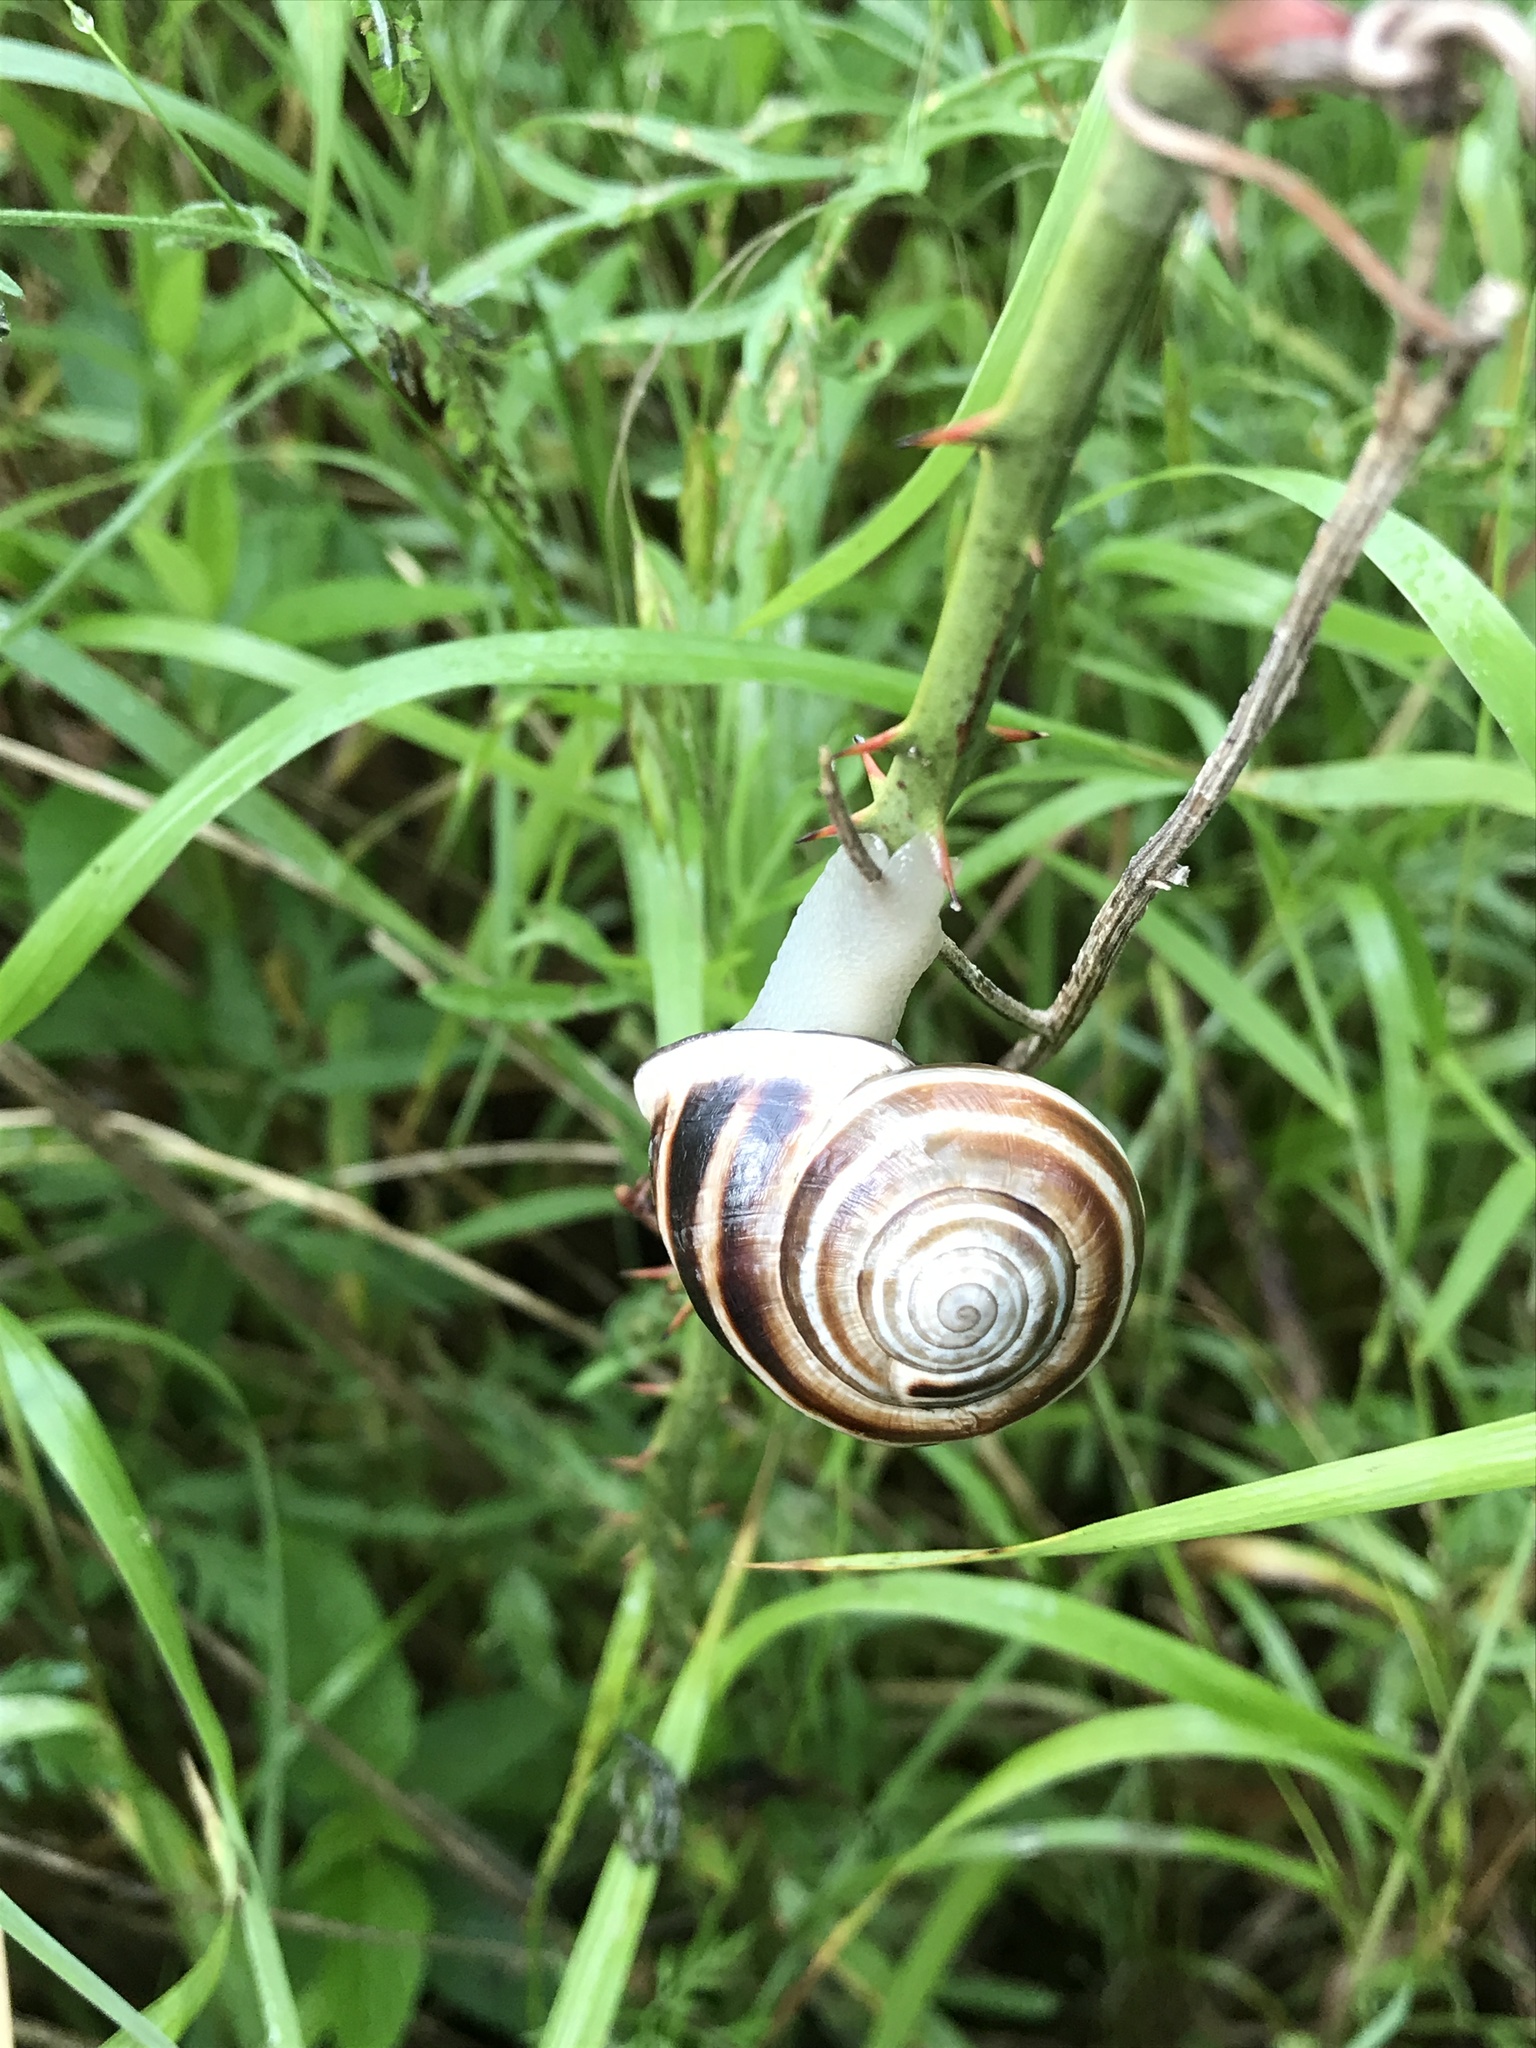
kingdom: Animalia
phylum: Mollusca
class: Gastropoda
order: Stylommatophora
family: Helicidae
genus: Otala
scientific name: Otala lactea
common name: Milk snail
